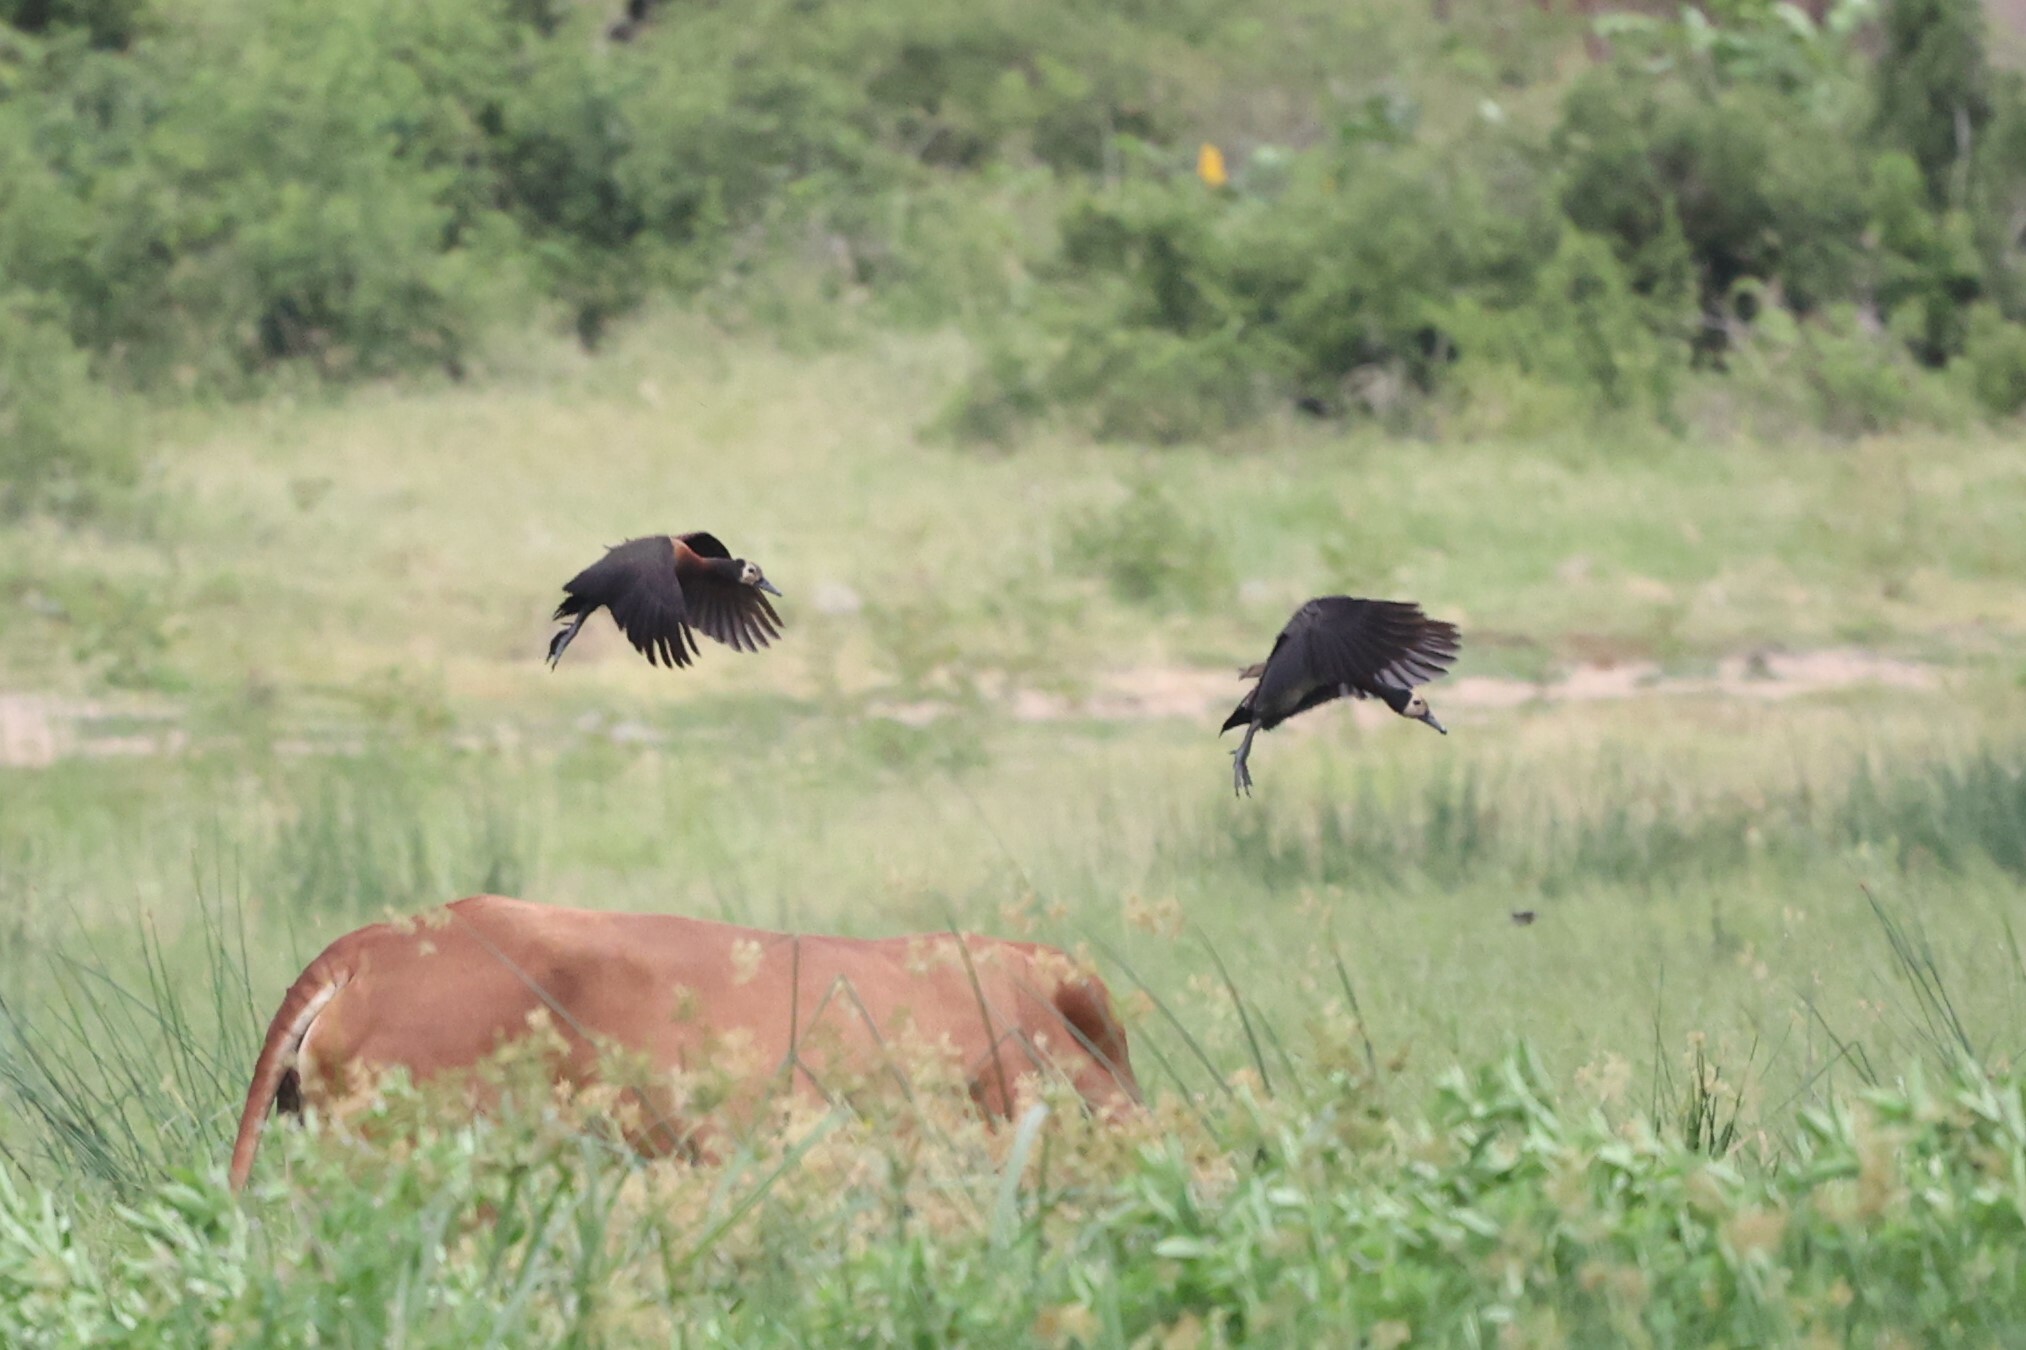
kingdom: Animalia
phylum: Chordata
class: Aves
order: Anseriformes
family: Anatidae
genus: Dendrocygna
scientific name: Dendrocygna viduata
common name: White-faced whistling duck
